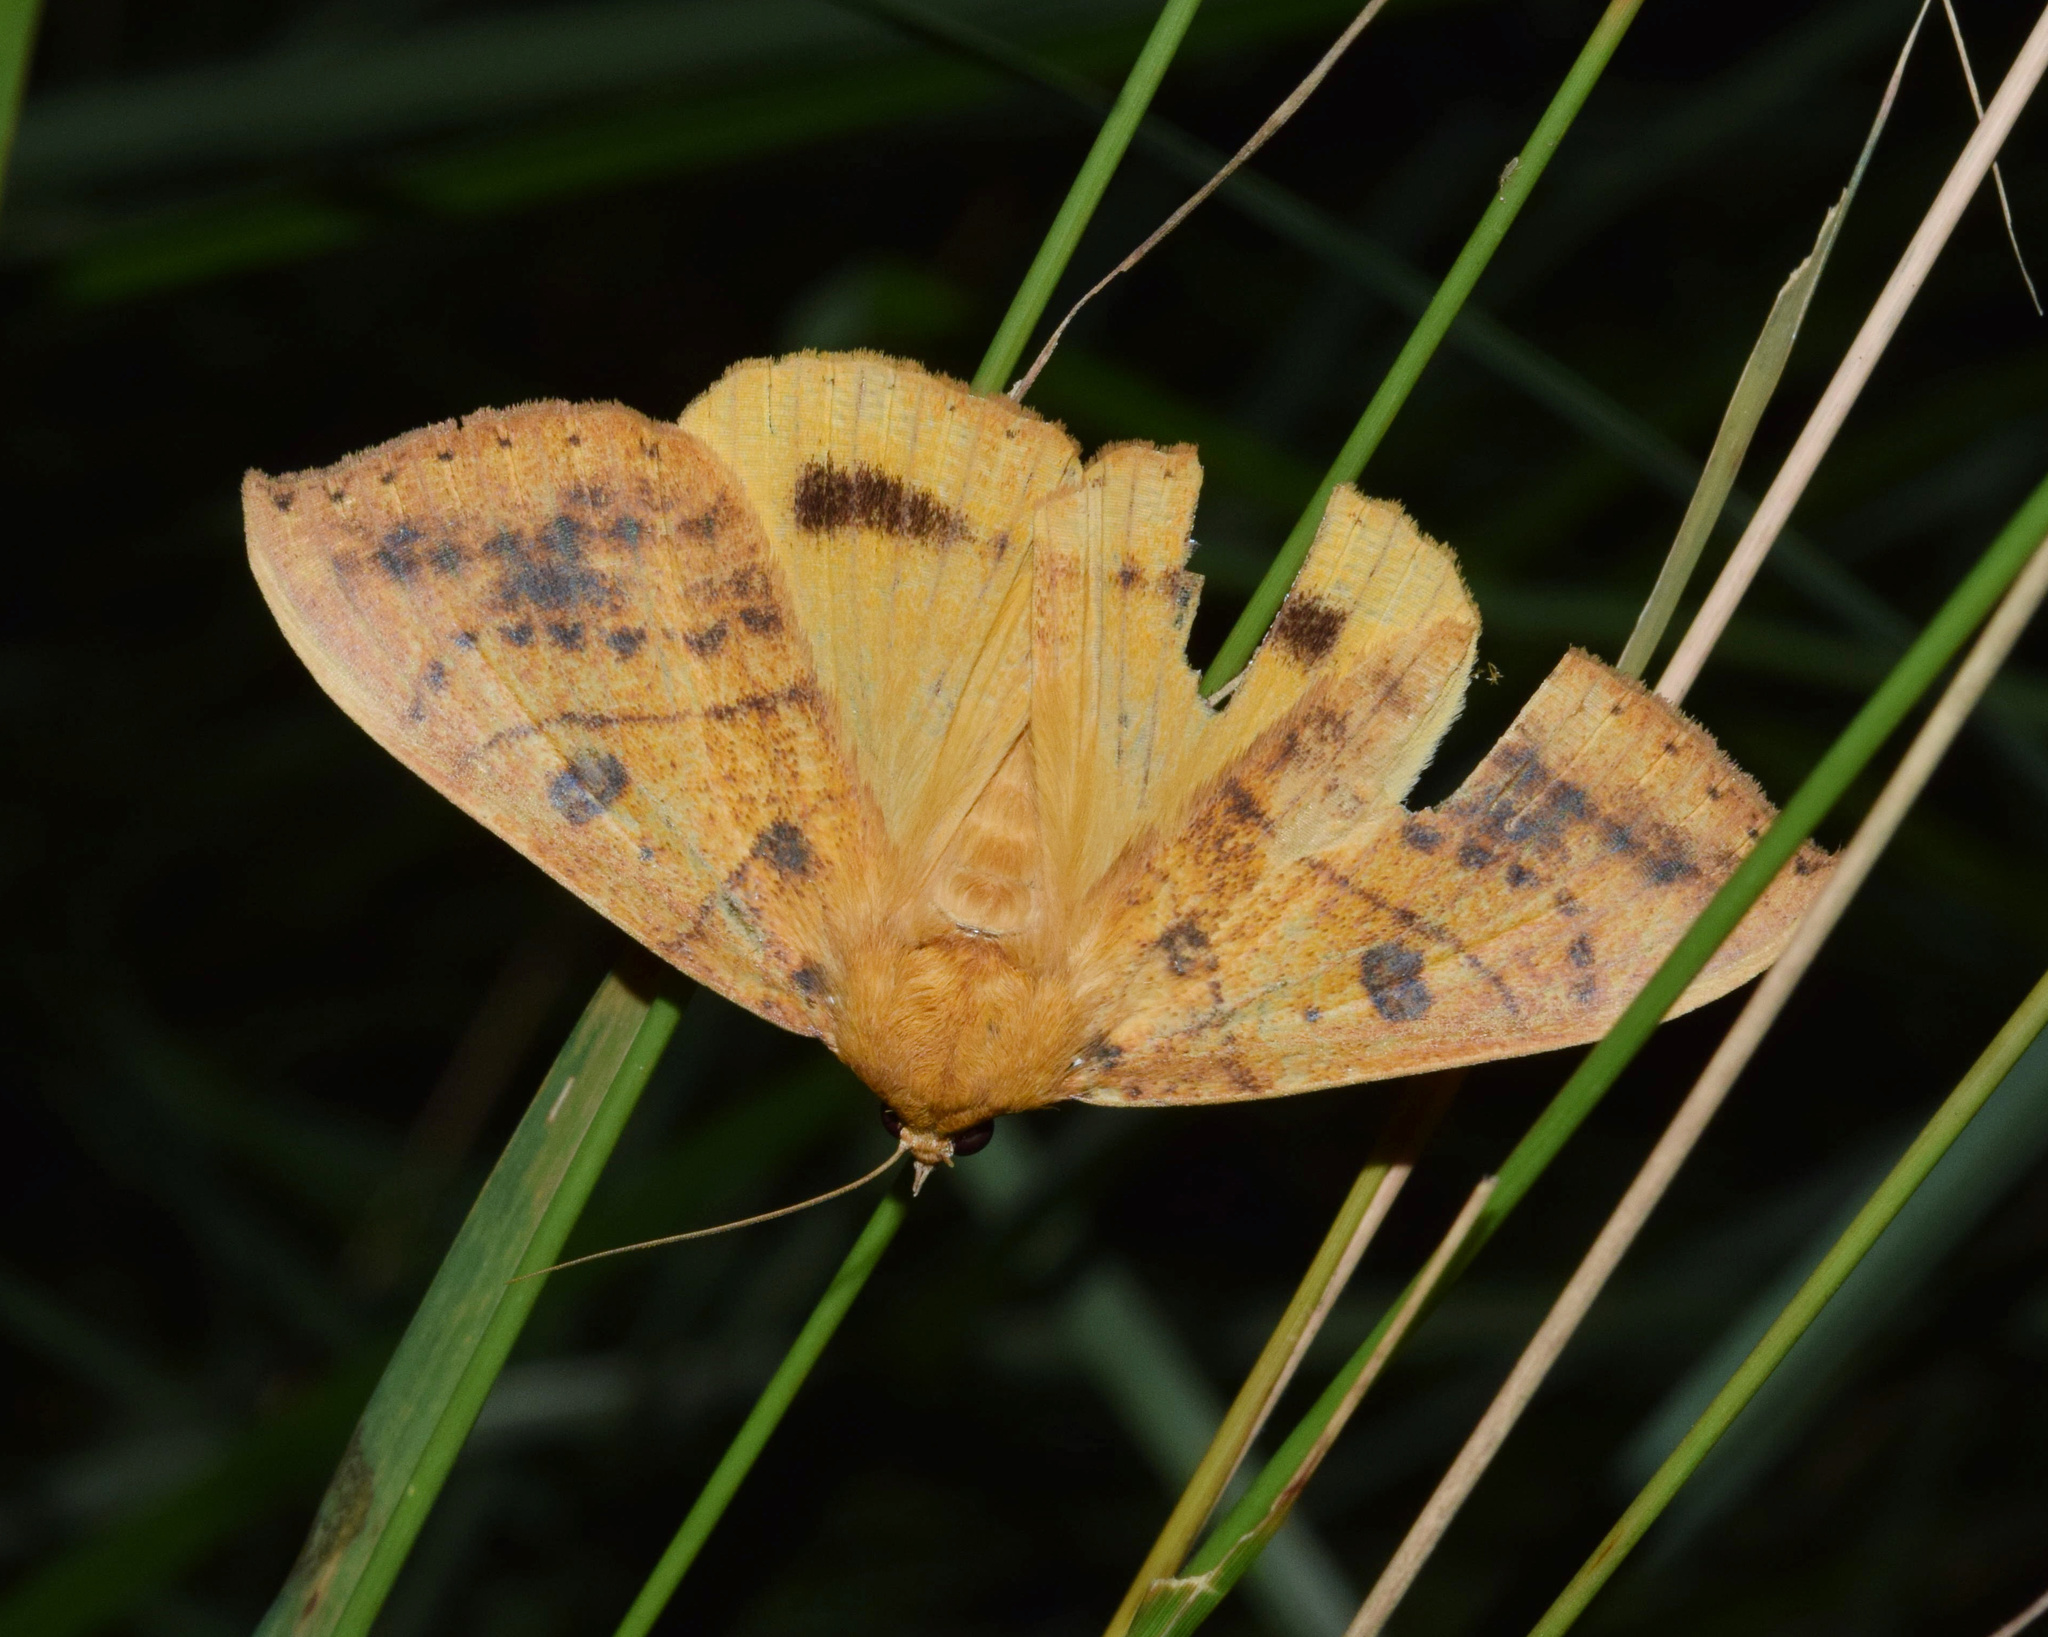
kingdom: Animalia
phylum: Arthropoda
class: Insecta
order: Lepidoptera
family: Erebidae
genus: Achaea
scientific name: Achaea klugii
